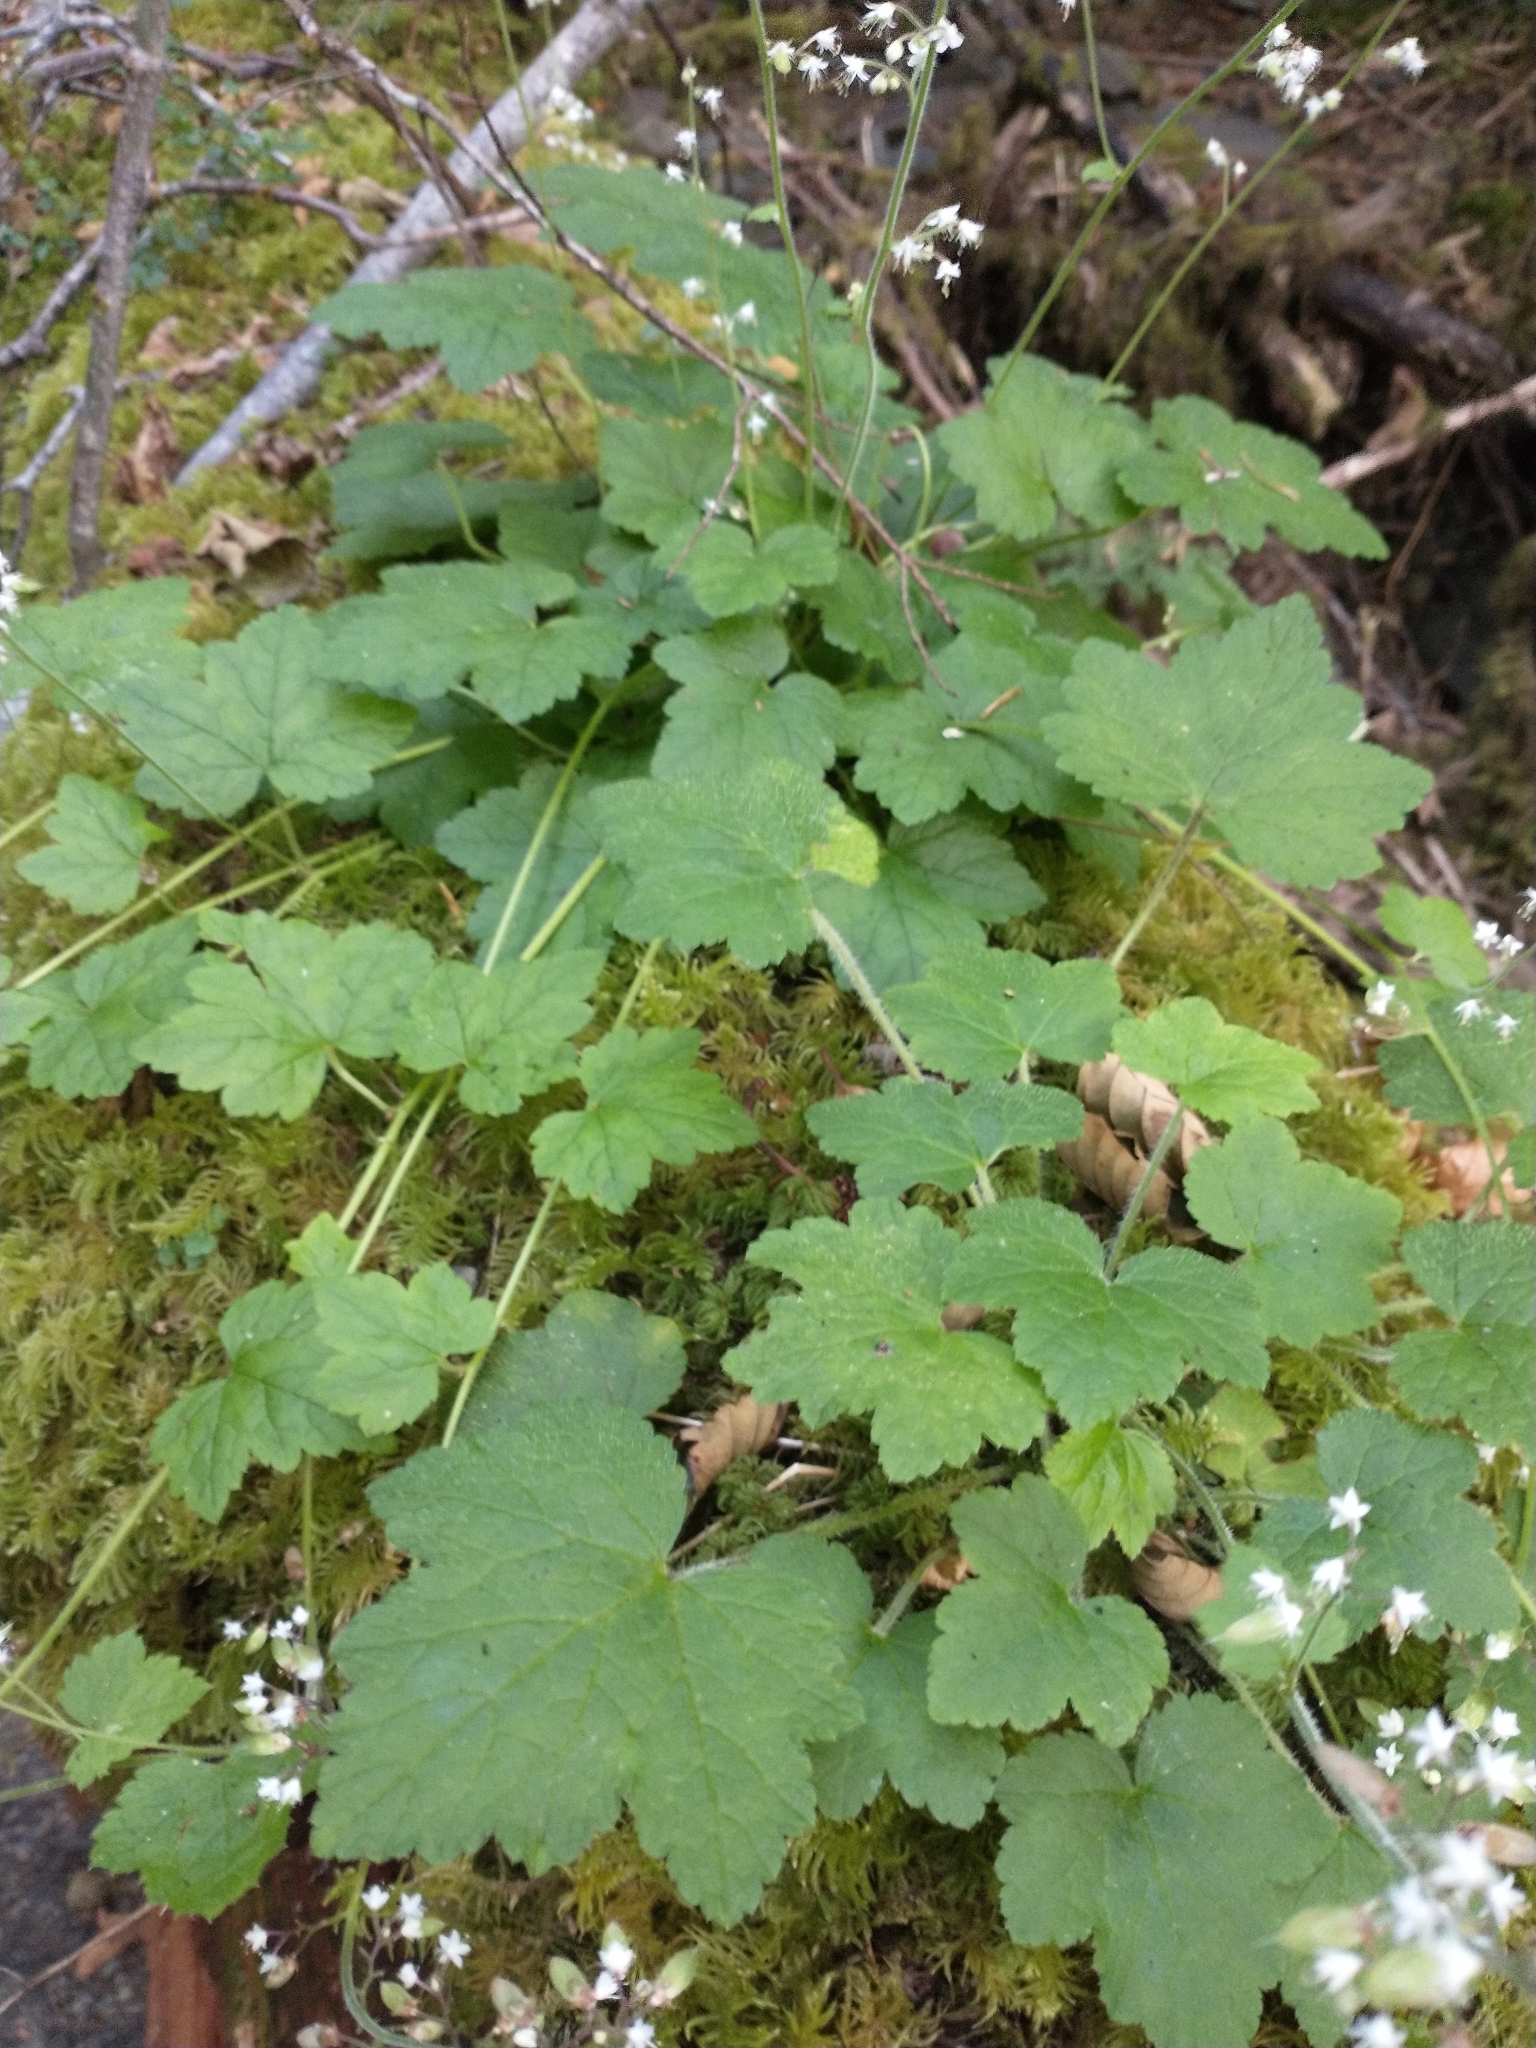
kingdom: Plantae
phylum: Tracheophyta
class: Magnoliopsida
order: Saxifragales
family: Saxifragaceae
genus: Tiarella
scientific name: Tiarella trifoliata
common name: Sugar-scoop
